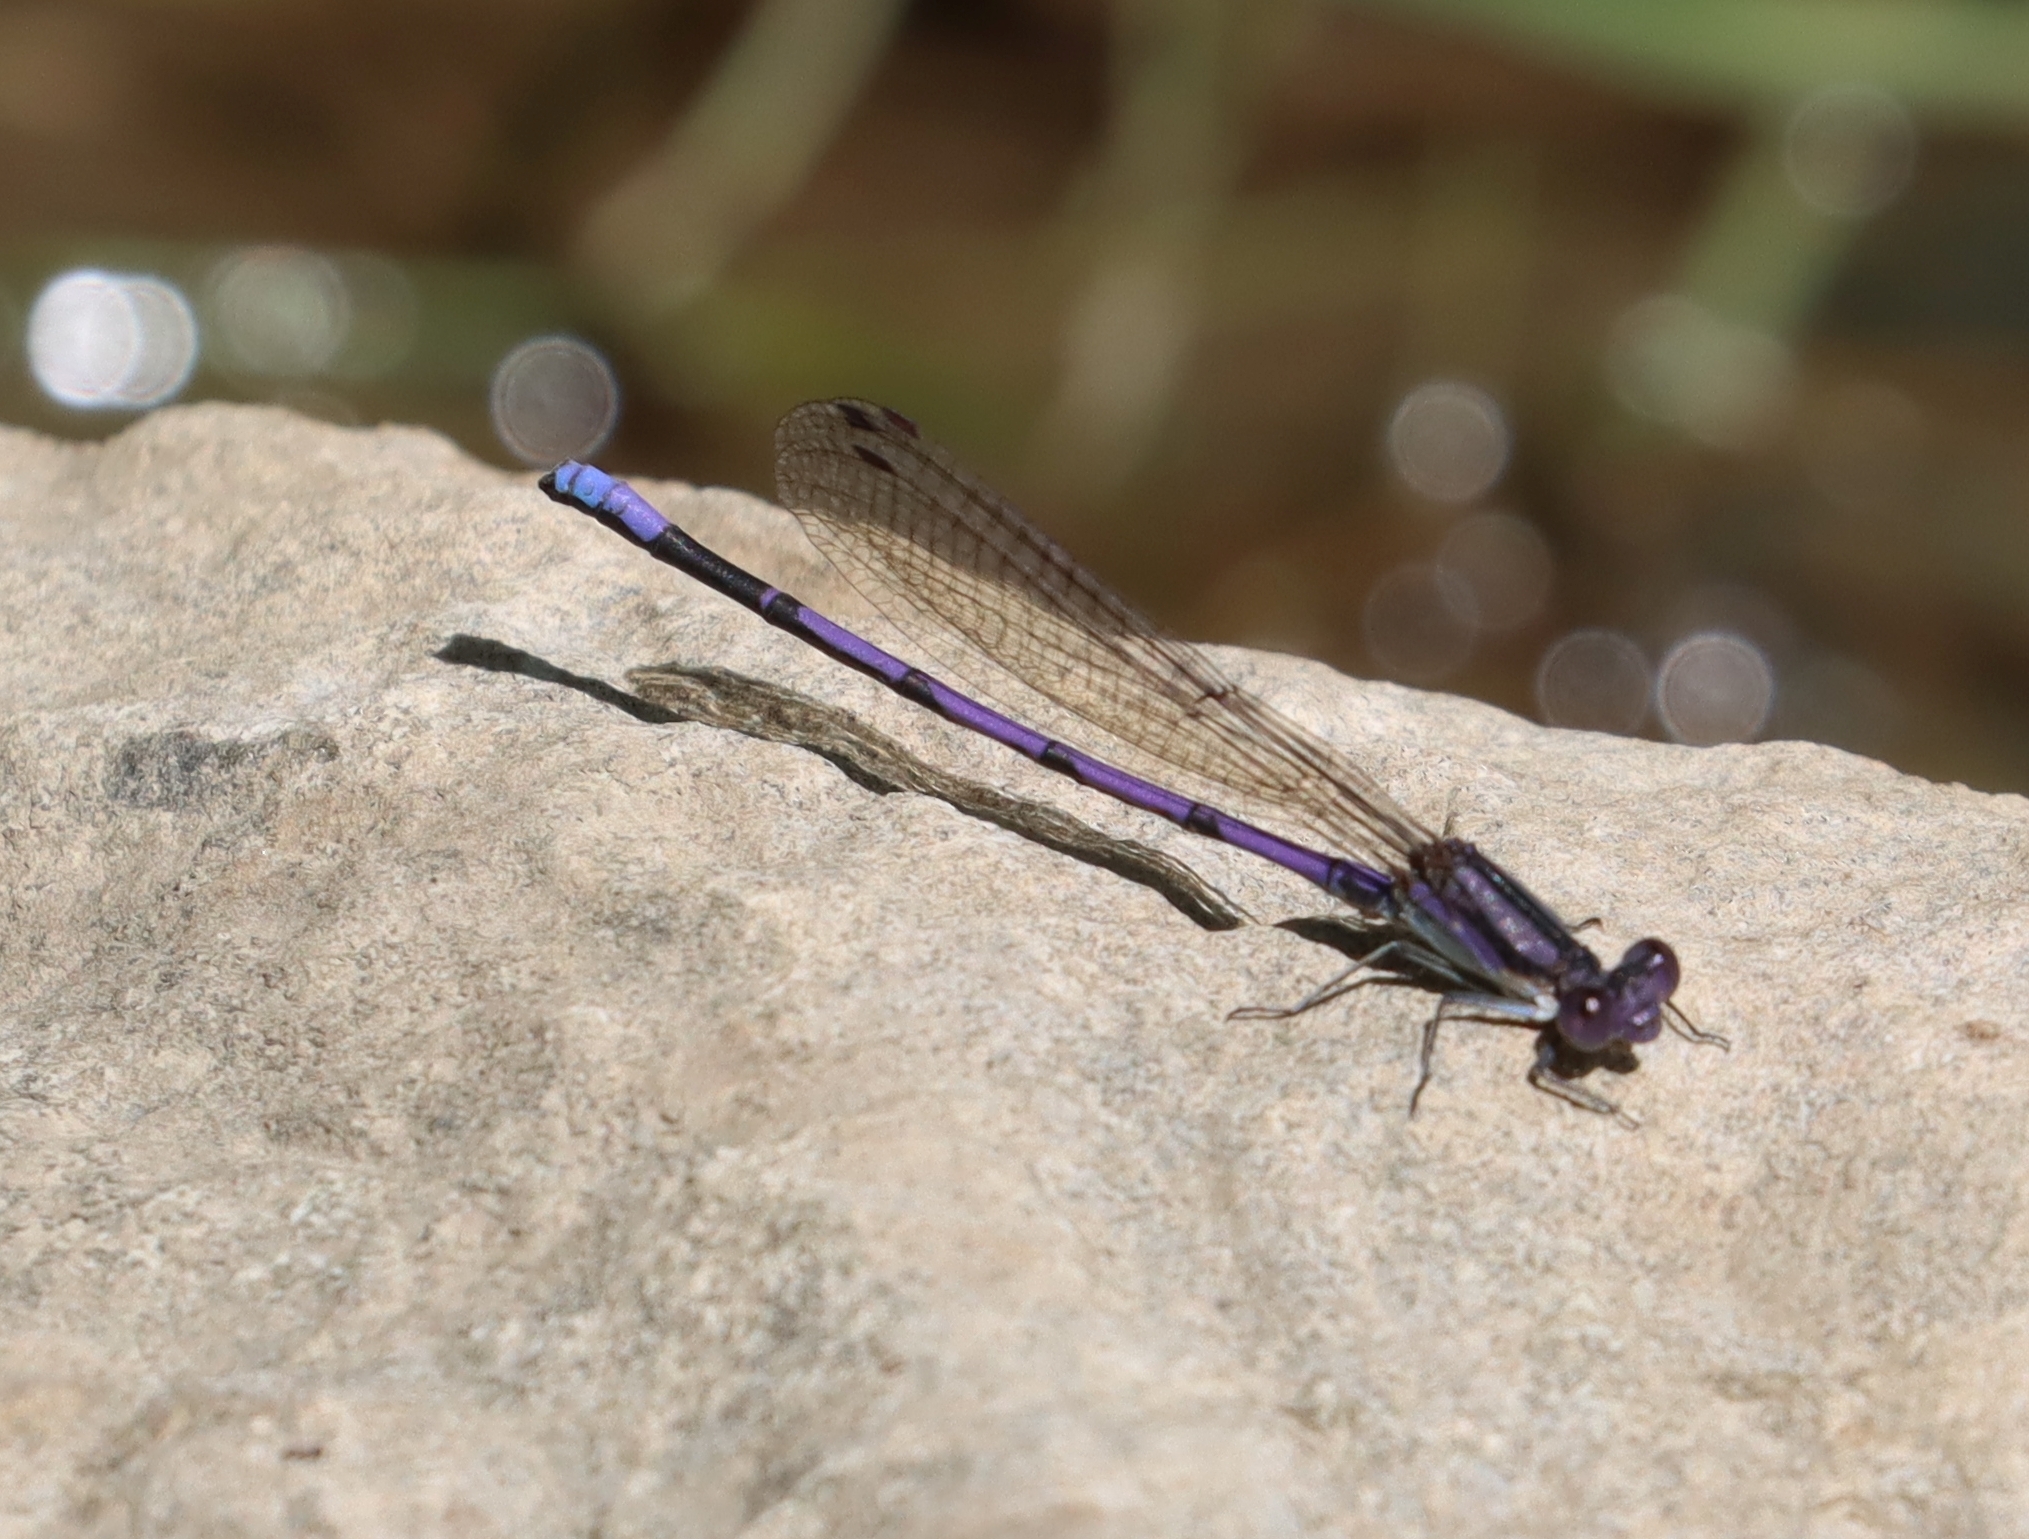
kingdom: Animalia
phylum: Arthropoda
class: Insecta
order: Odonata
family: Coenagrionidae
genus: Argia
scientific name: Argia fumipennis
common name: Variable dancer
